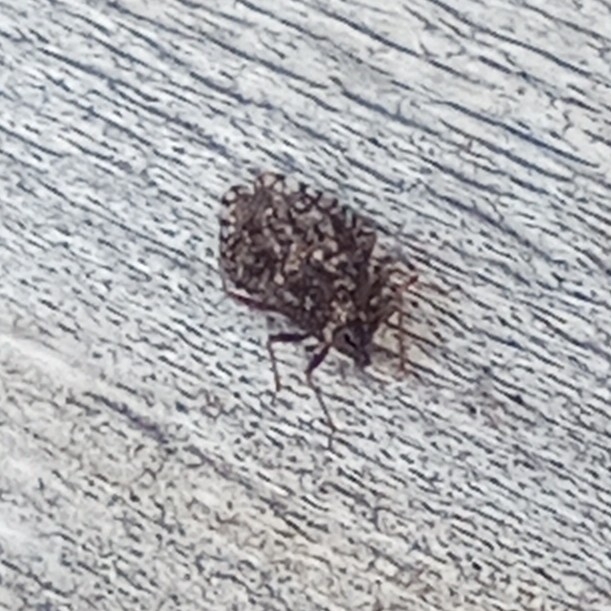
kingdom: Animalia
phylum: Arthropoda
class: Insecta
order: Hemiptera
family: Tingidae
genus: Dictyla
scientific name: Dictyla rotundata
